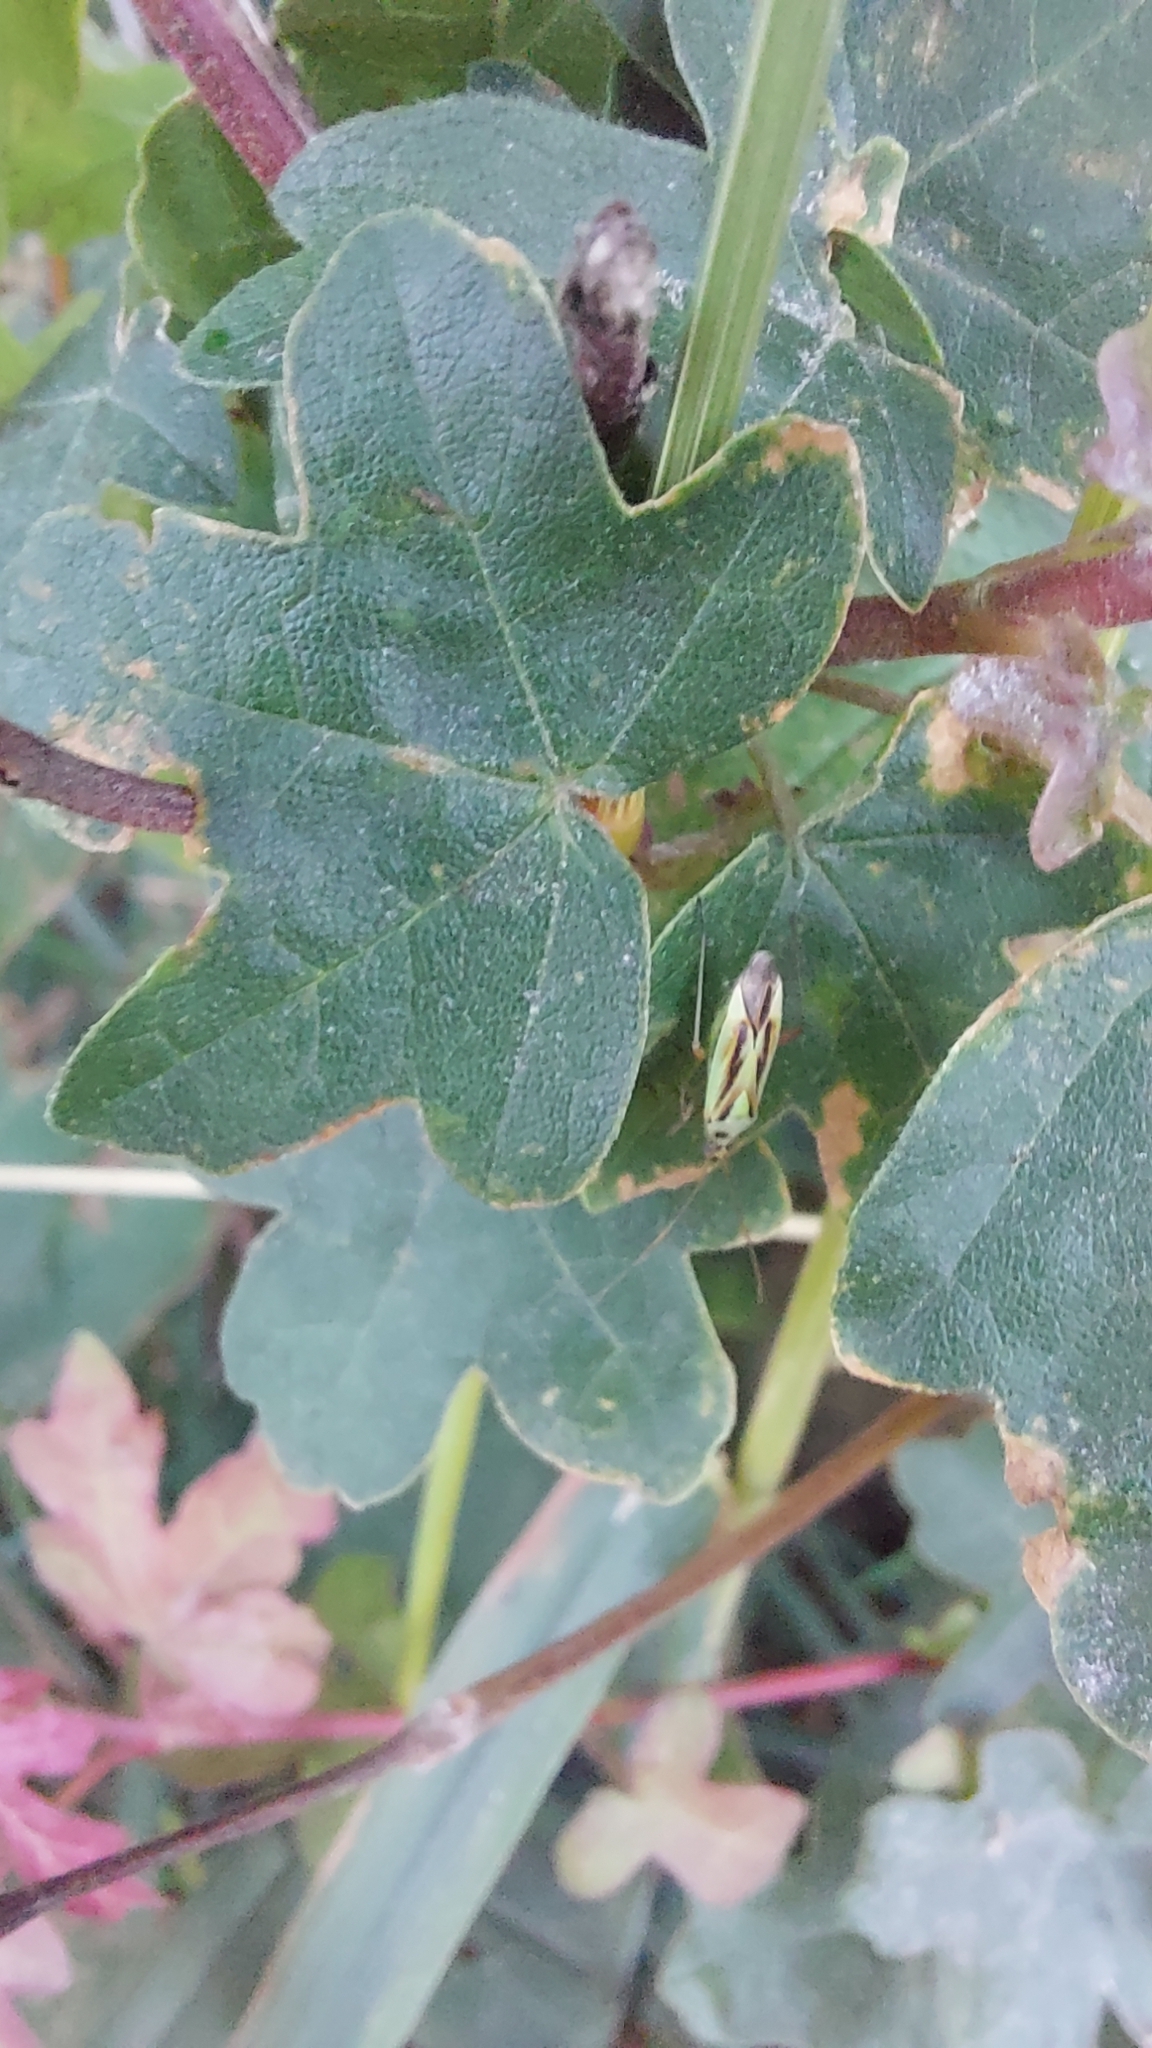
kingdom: Animalia
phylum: Arthropoda
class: Insecta
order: Hemiptera
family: Miridae
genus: Stenotus
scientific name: Stenotus binotatus
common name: Plant bug
